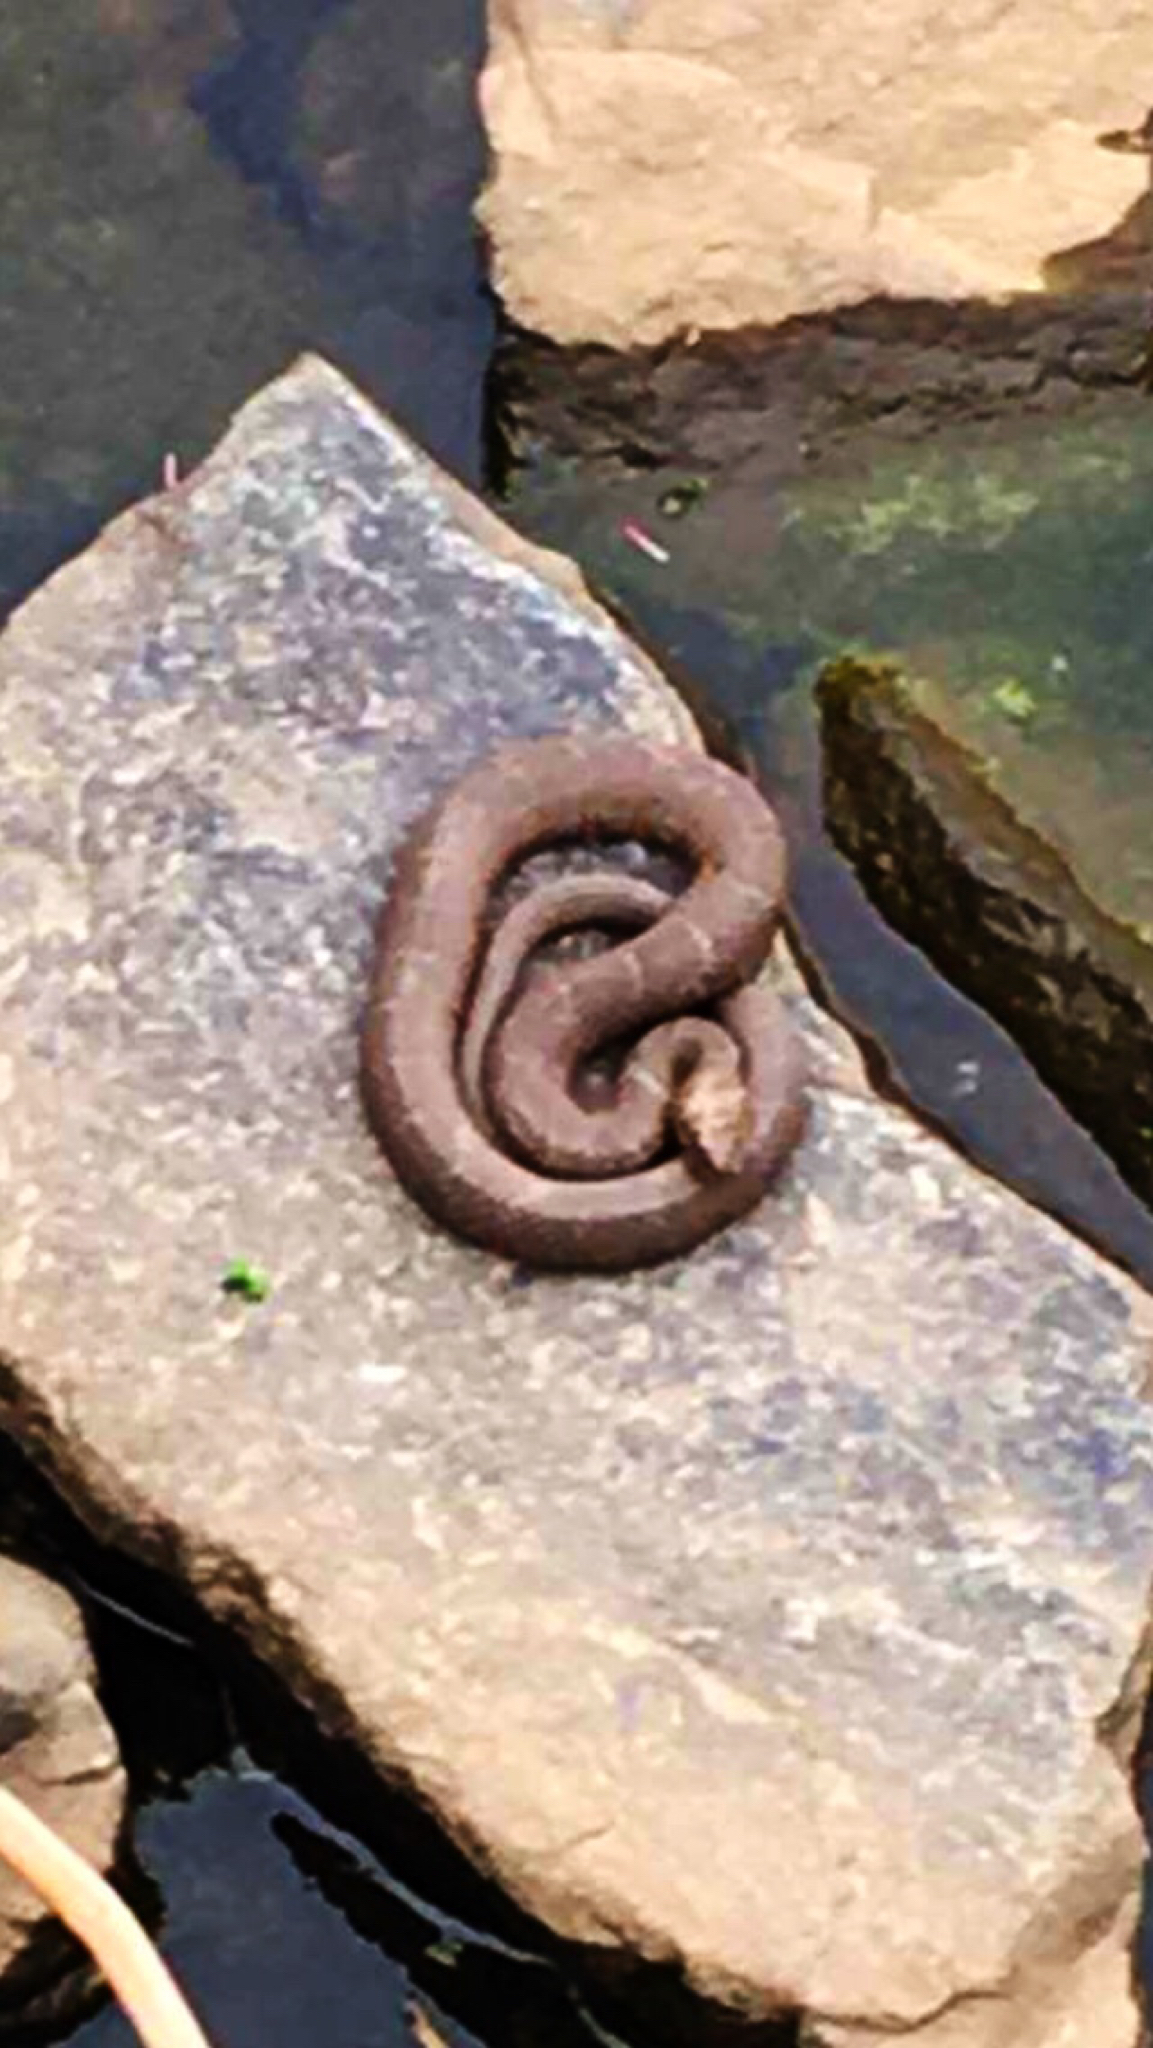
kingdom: Animalia
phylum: Chordata
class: Squamata
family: Colubridae
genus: Nerodia
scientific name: Nerodia sipedon
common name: Northern water snake
